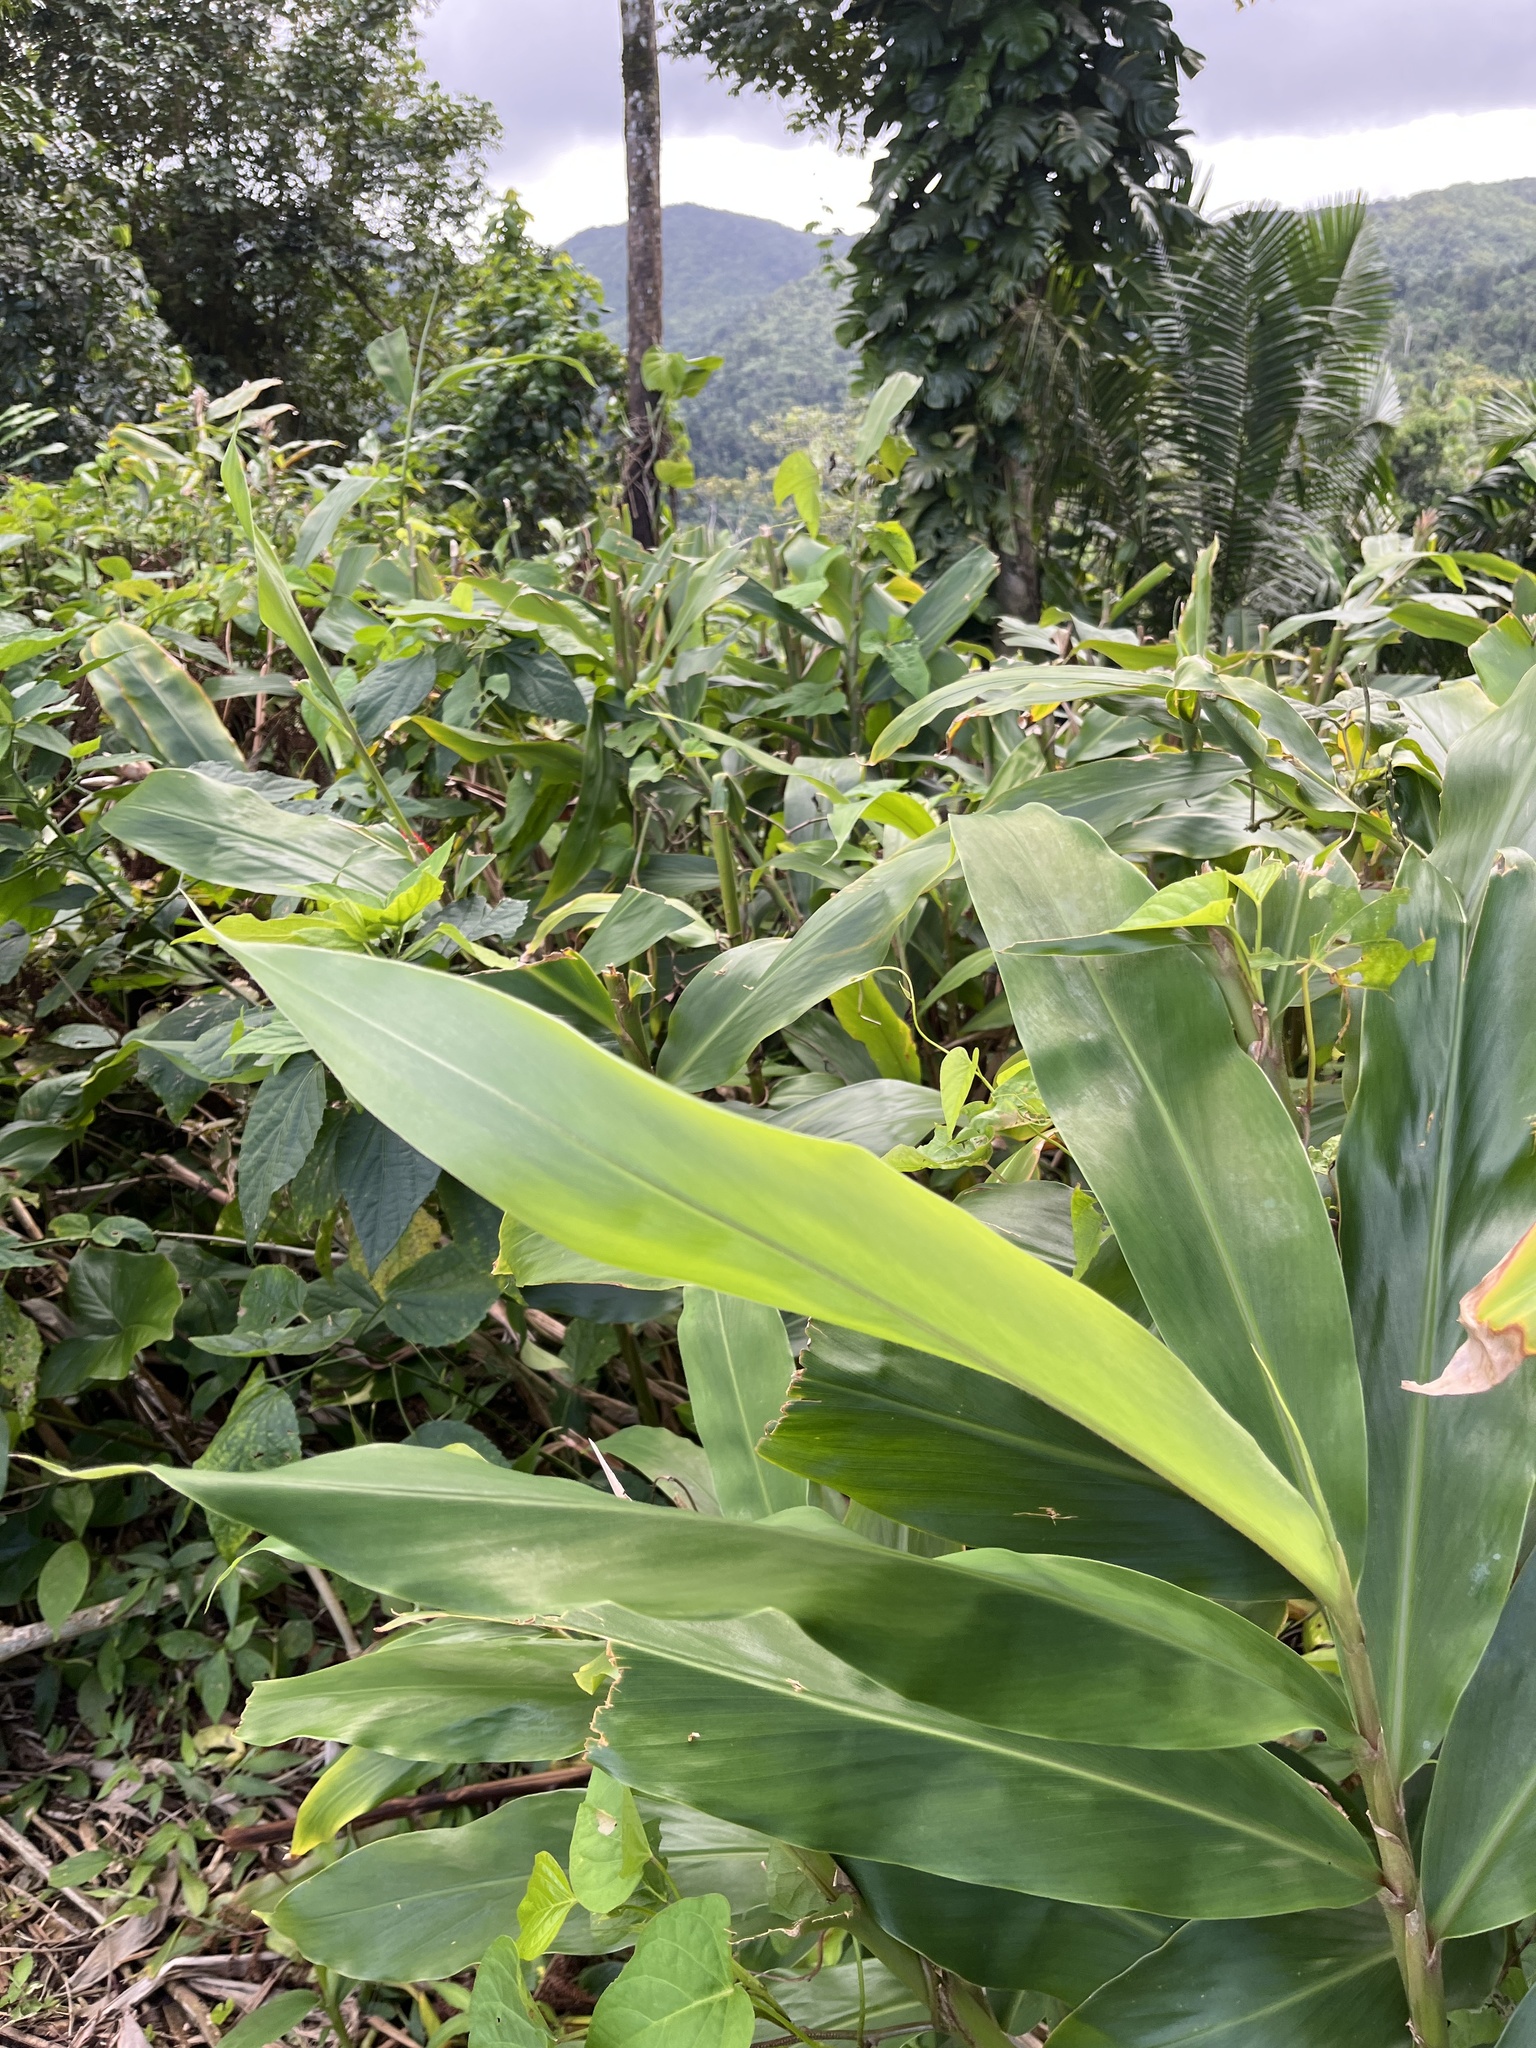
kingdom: Plantae
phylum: Tracheophyta
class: Liliopsida
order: Zingiberales
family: Zingiberaceae
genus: Hedychium
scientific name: Hedychium coronarium
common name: White garland-lily
